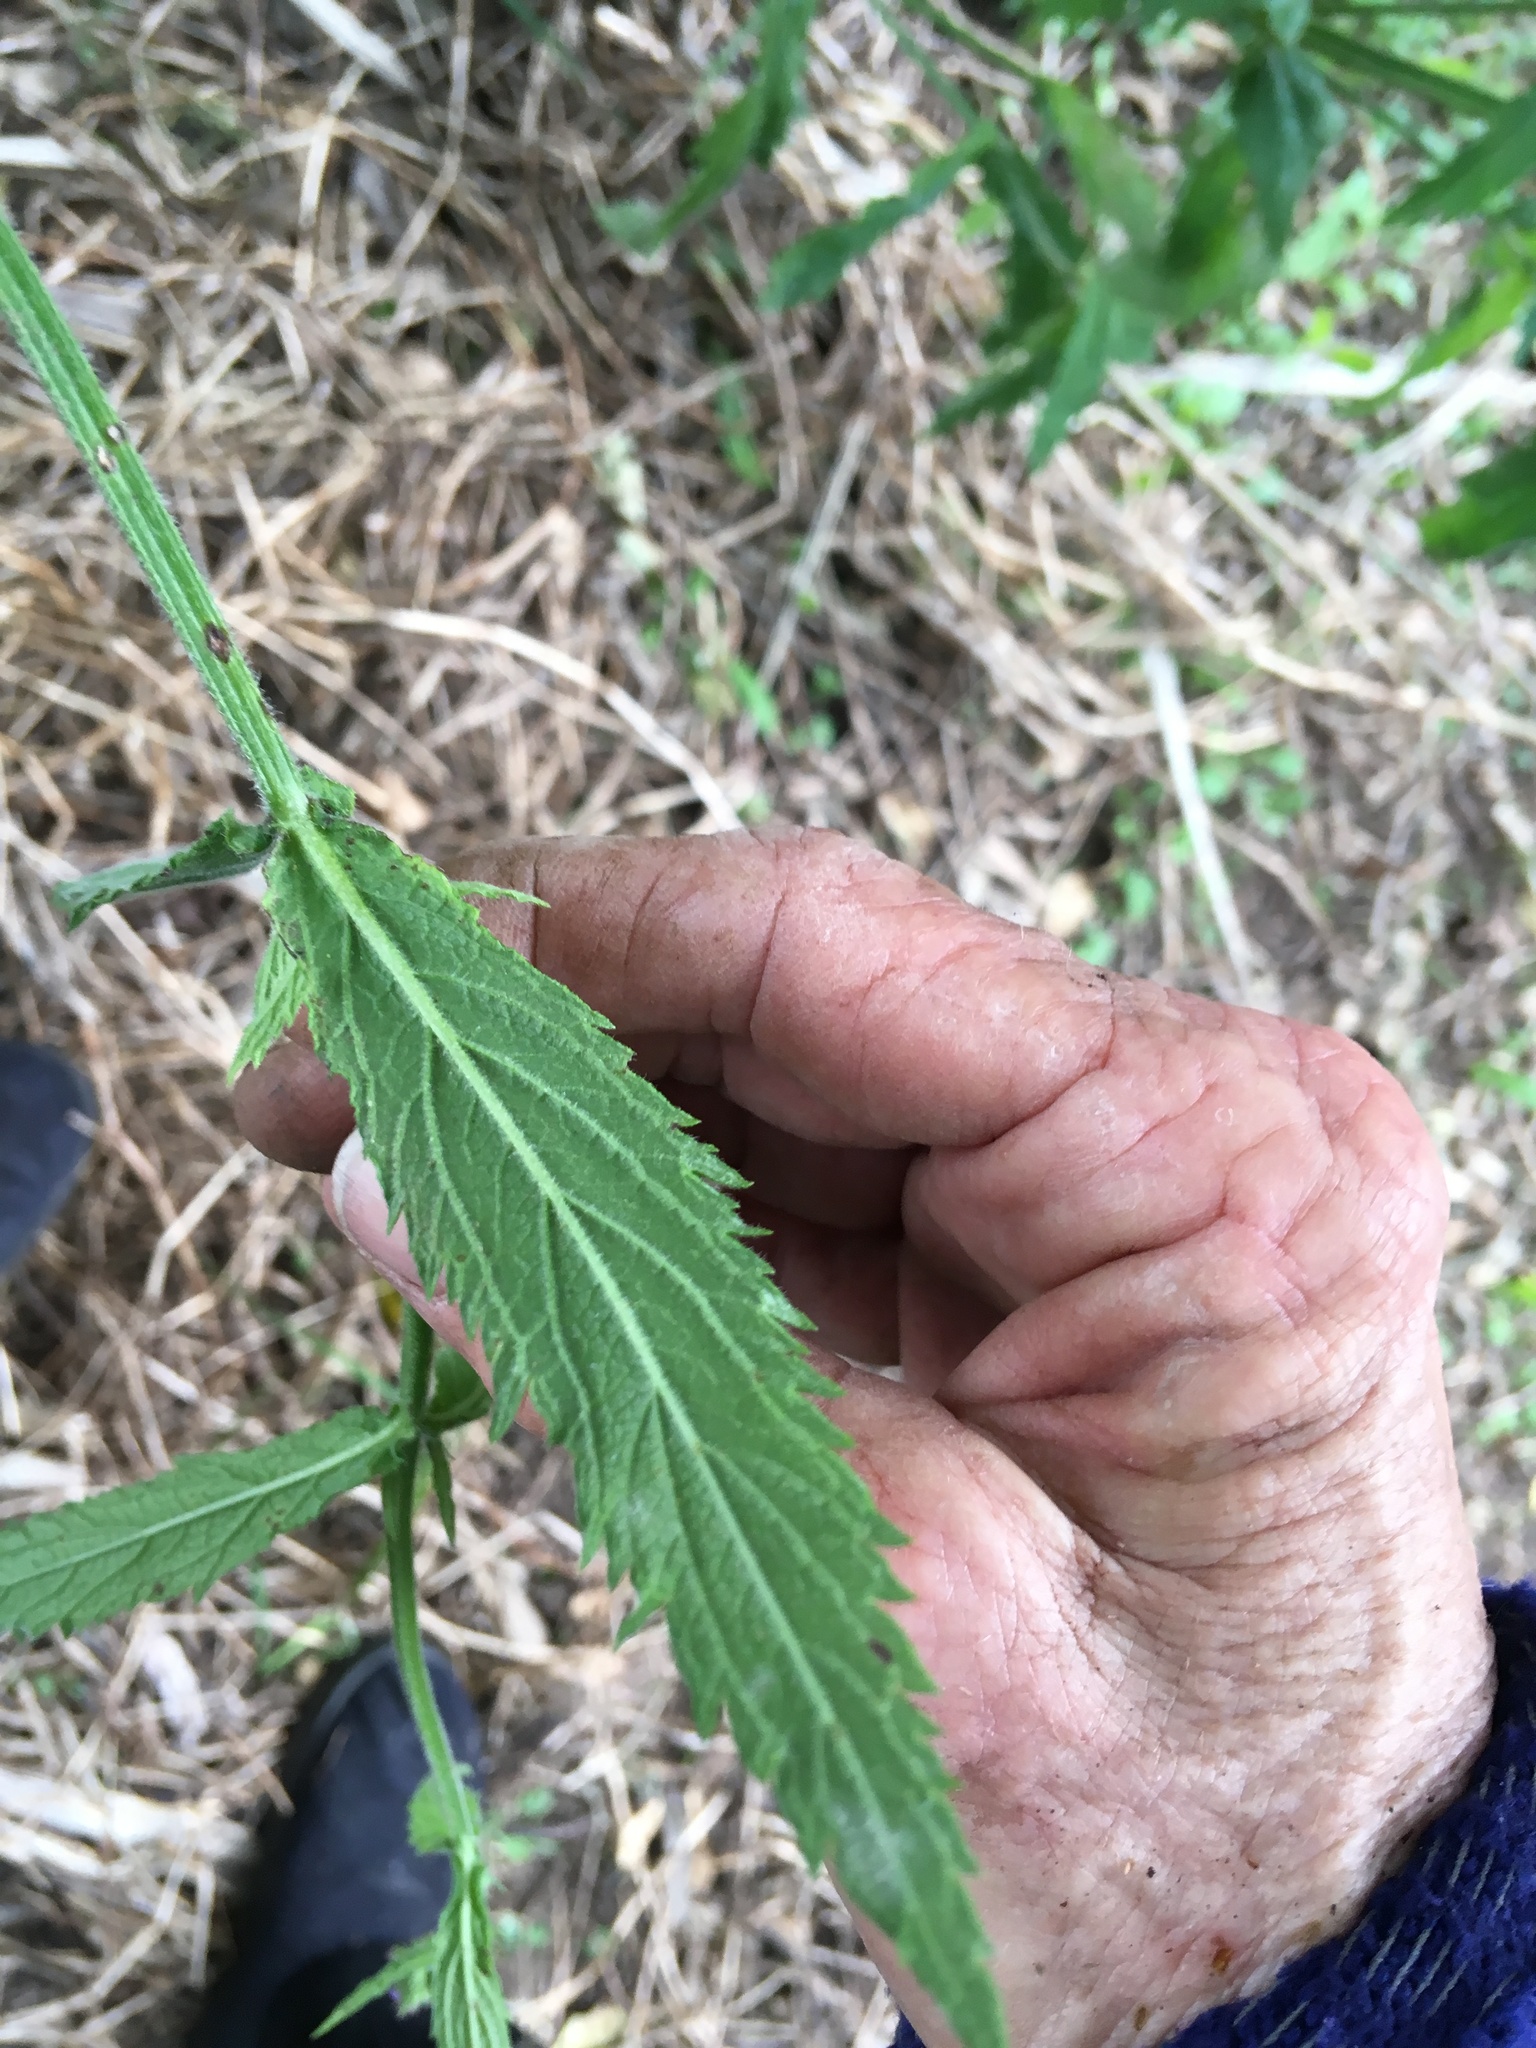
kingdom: Plantae
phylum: Tracheophyta
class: Magnoliopsida
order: Lamiales
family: Verbenaceae
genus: Verbena
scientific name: Verbena incompta
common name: Purpletop vervain
